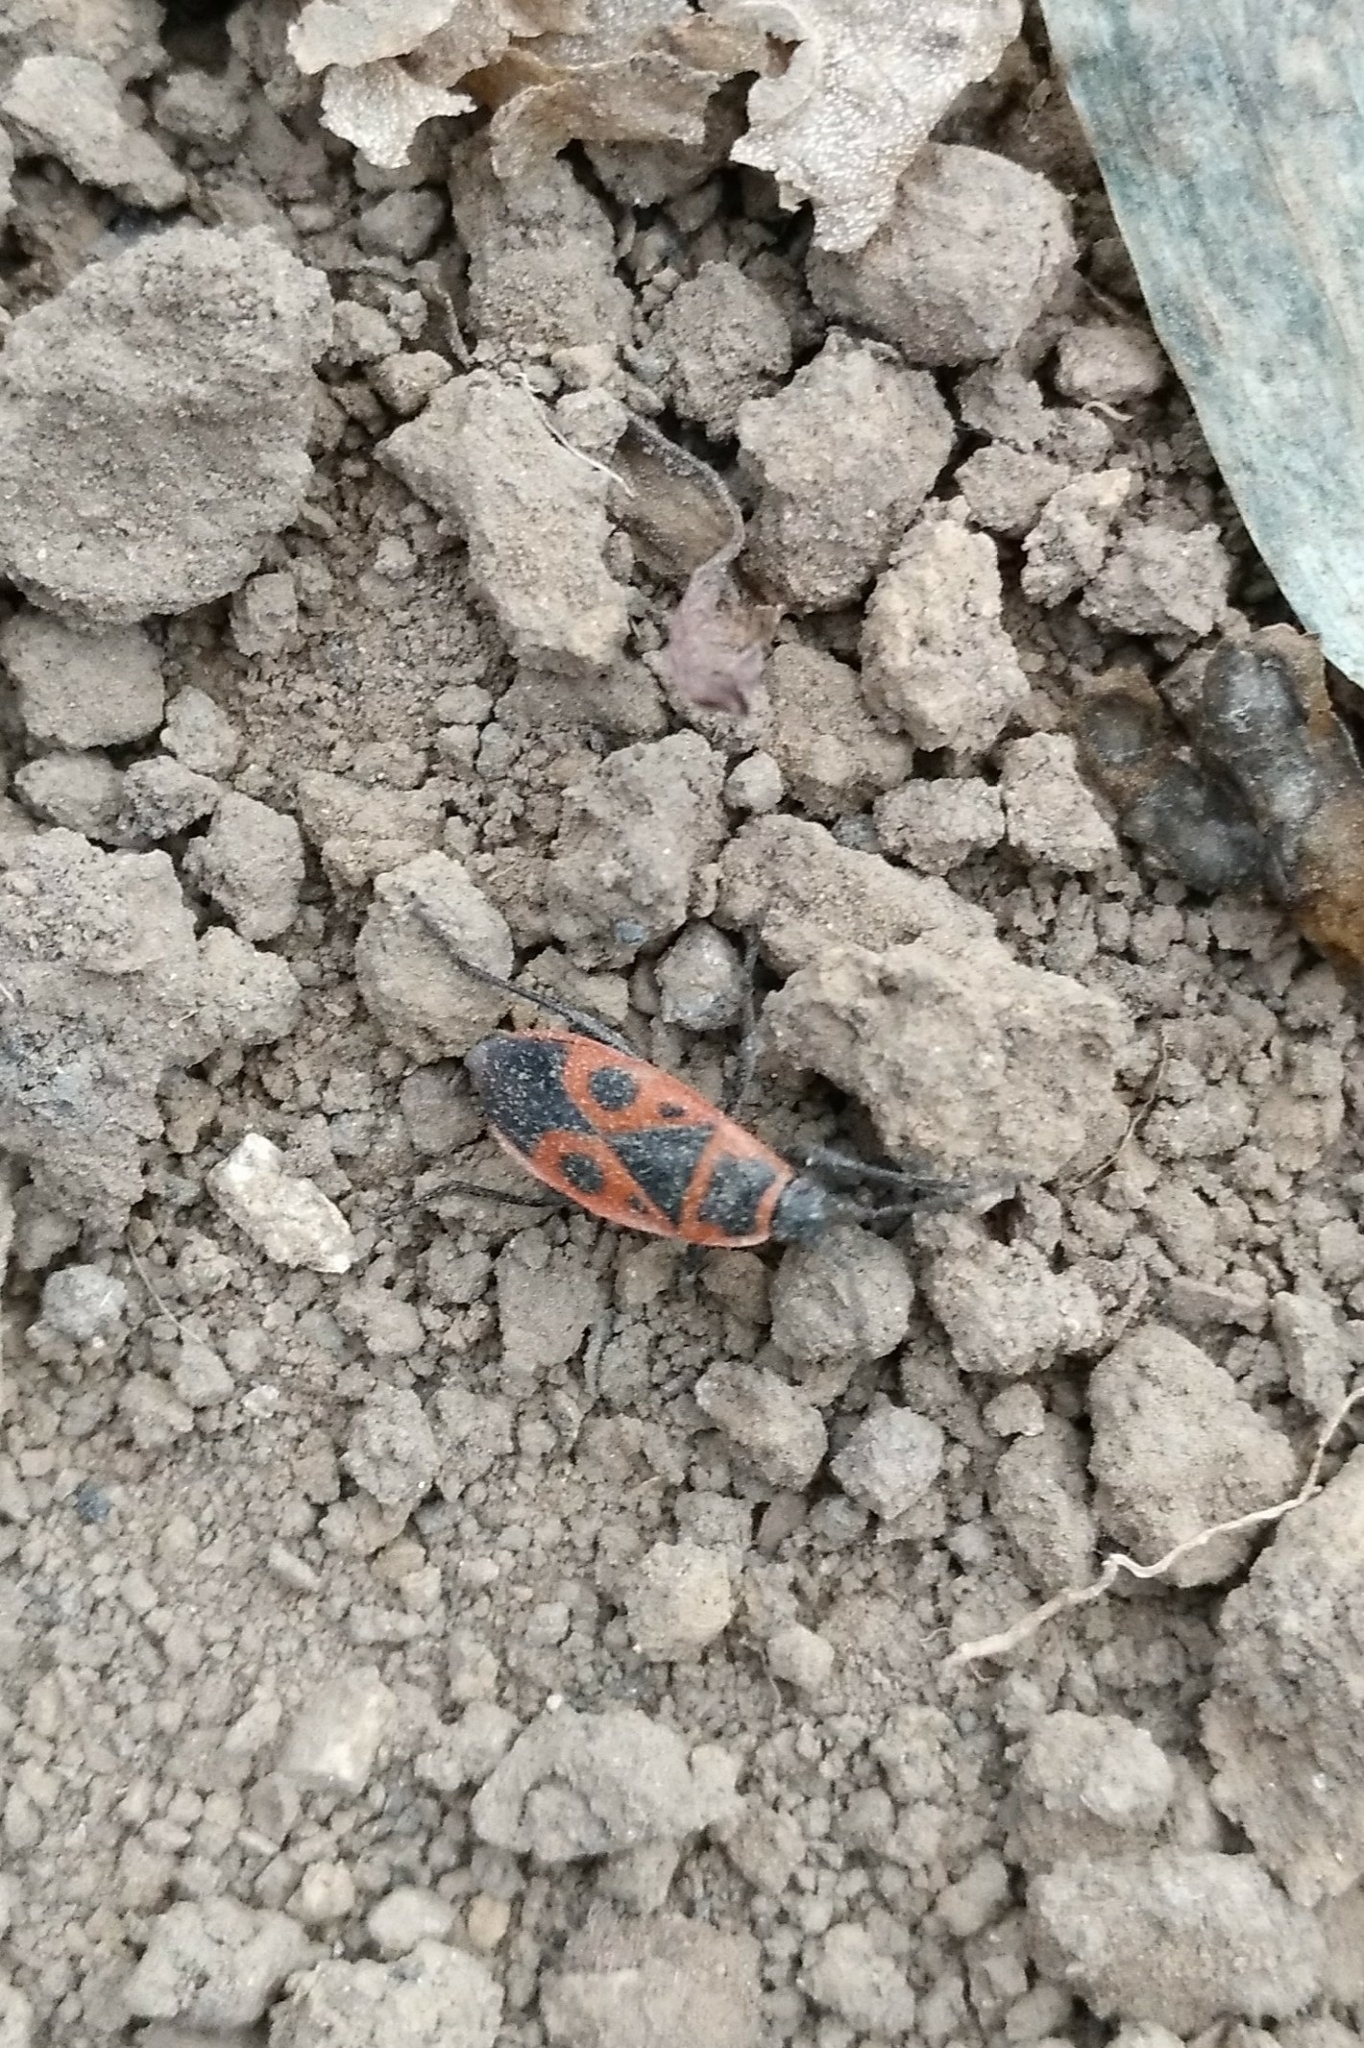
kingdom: Animalia
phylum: Arthropoda
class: Insecta
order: Hemiptera
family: Pyrrhocoridae
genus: Pyrrhocoris
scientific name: Pyrrhocoris apterus
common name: Firebug
